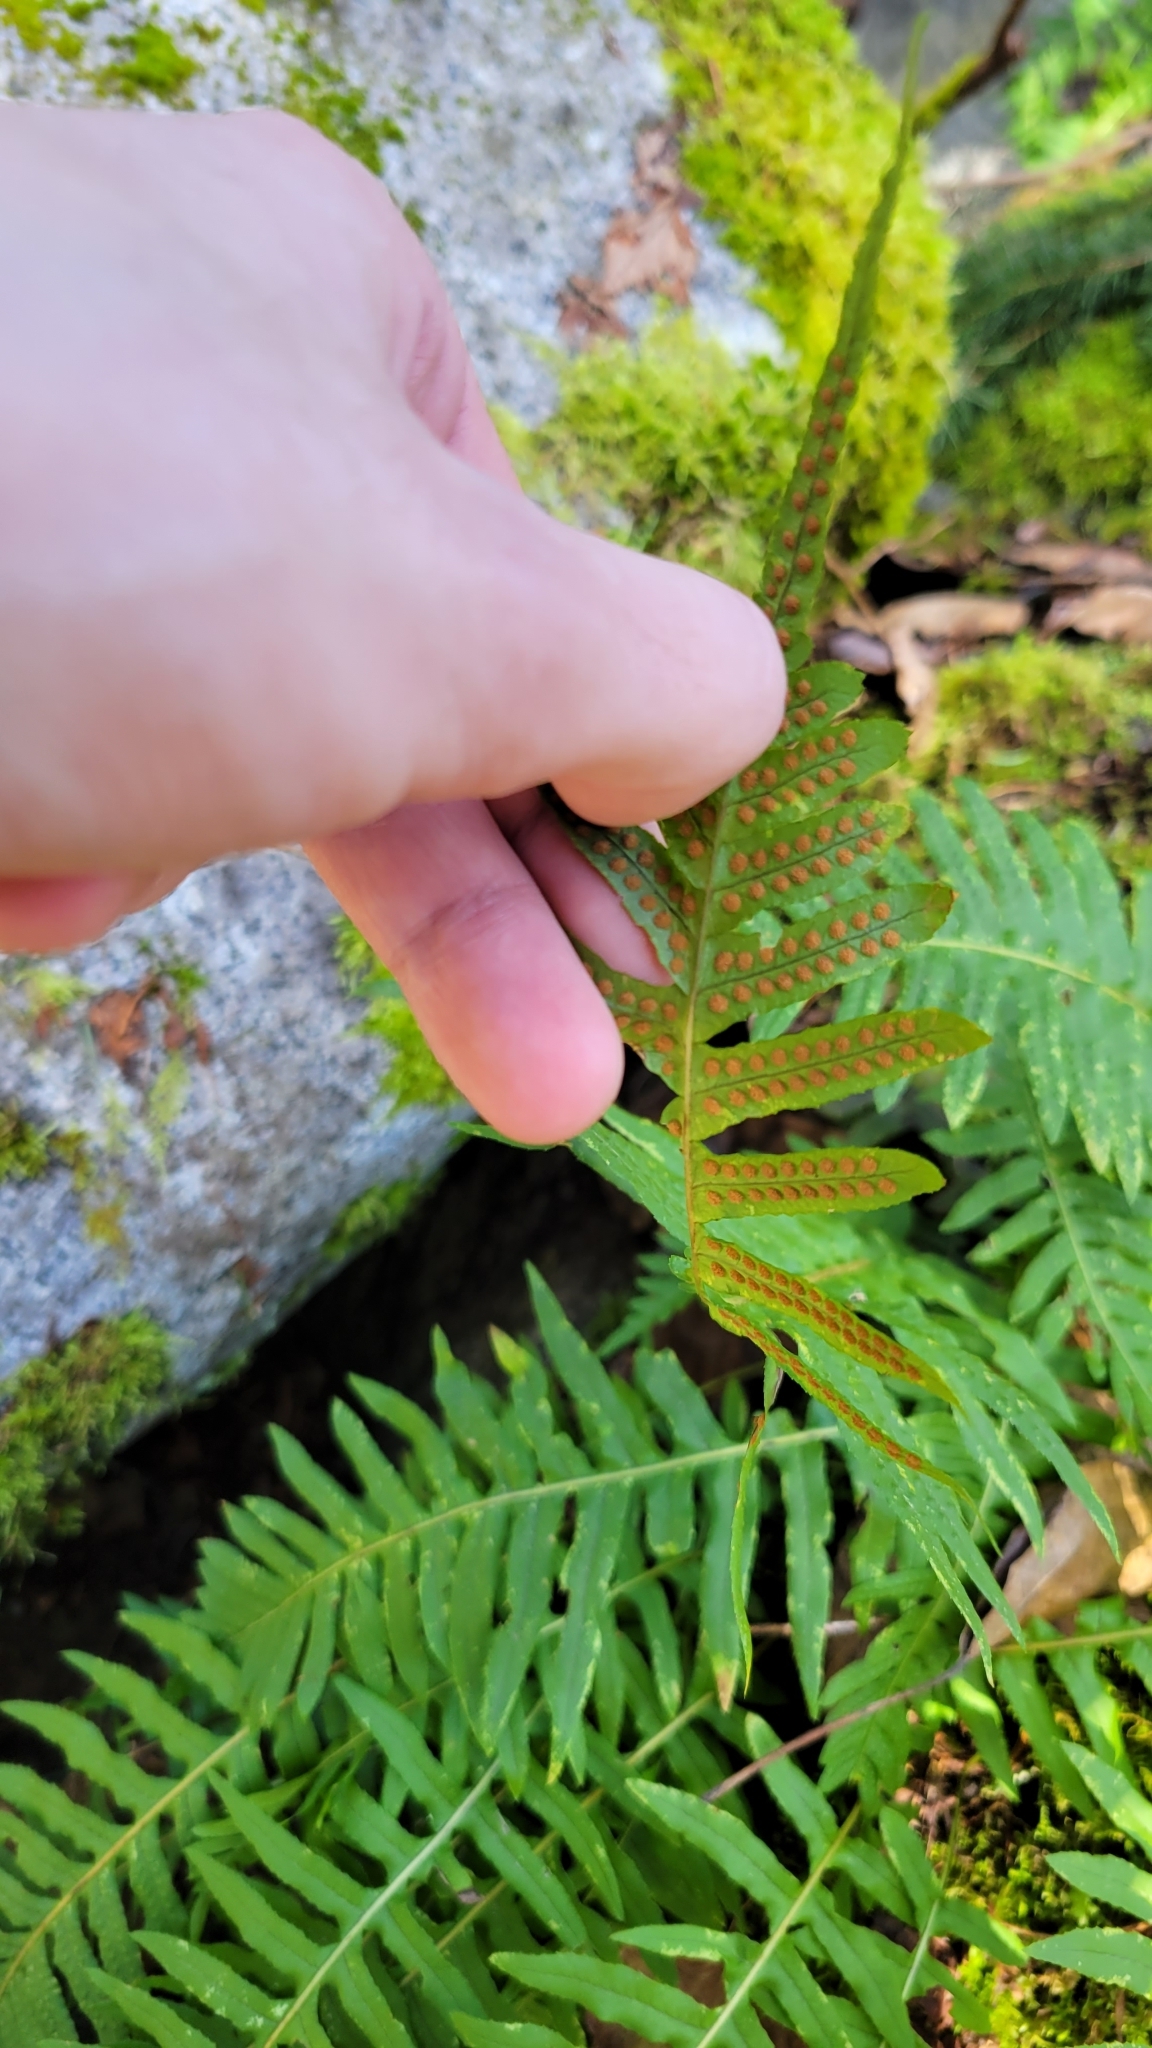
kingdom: Plantae
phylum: Tracheophyta
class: Polypodiopsida
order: Polypodiales
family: Polypodiaceae
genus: Polypodium
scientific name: Polypodium glycyrrhiza
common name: Licorice fern
